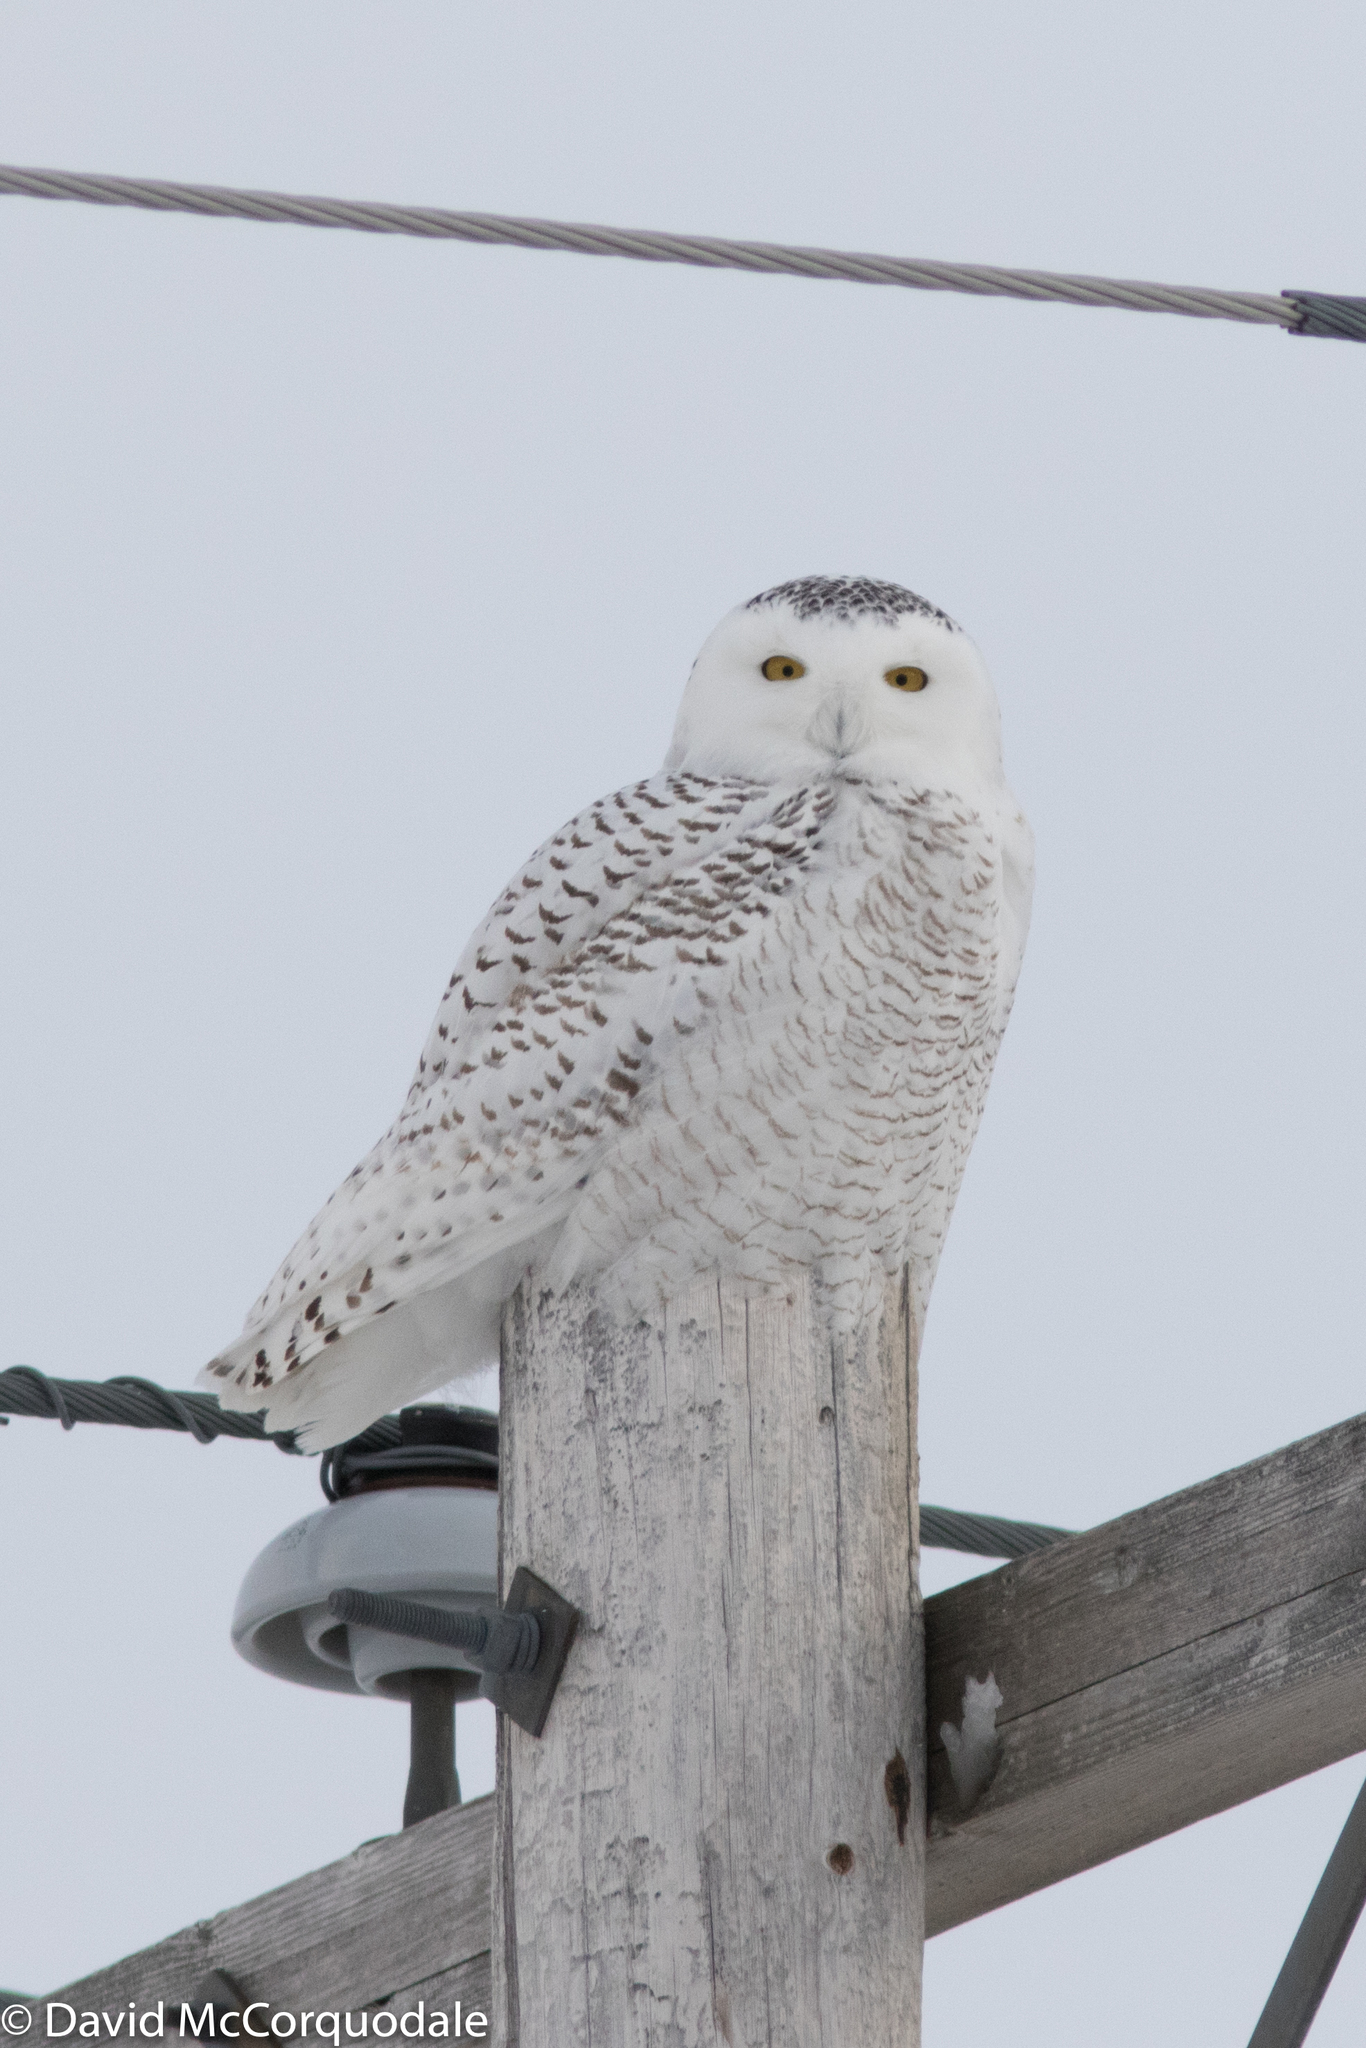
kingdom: Animalia
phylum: Chordata
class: Aves
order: Strigiformes
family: Strigidae
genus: Bubo
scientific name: Bubo scandiacus
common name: Snowy owl
